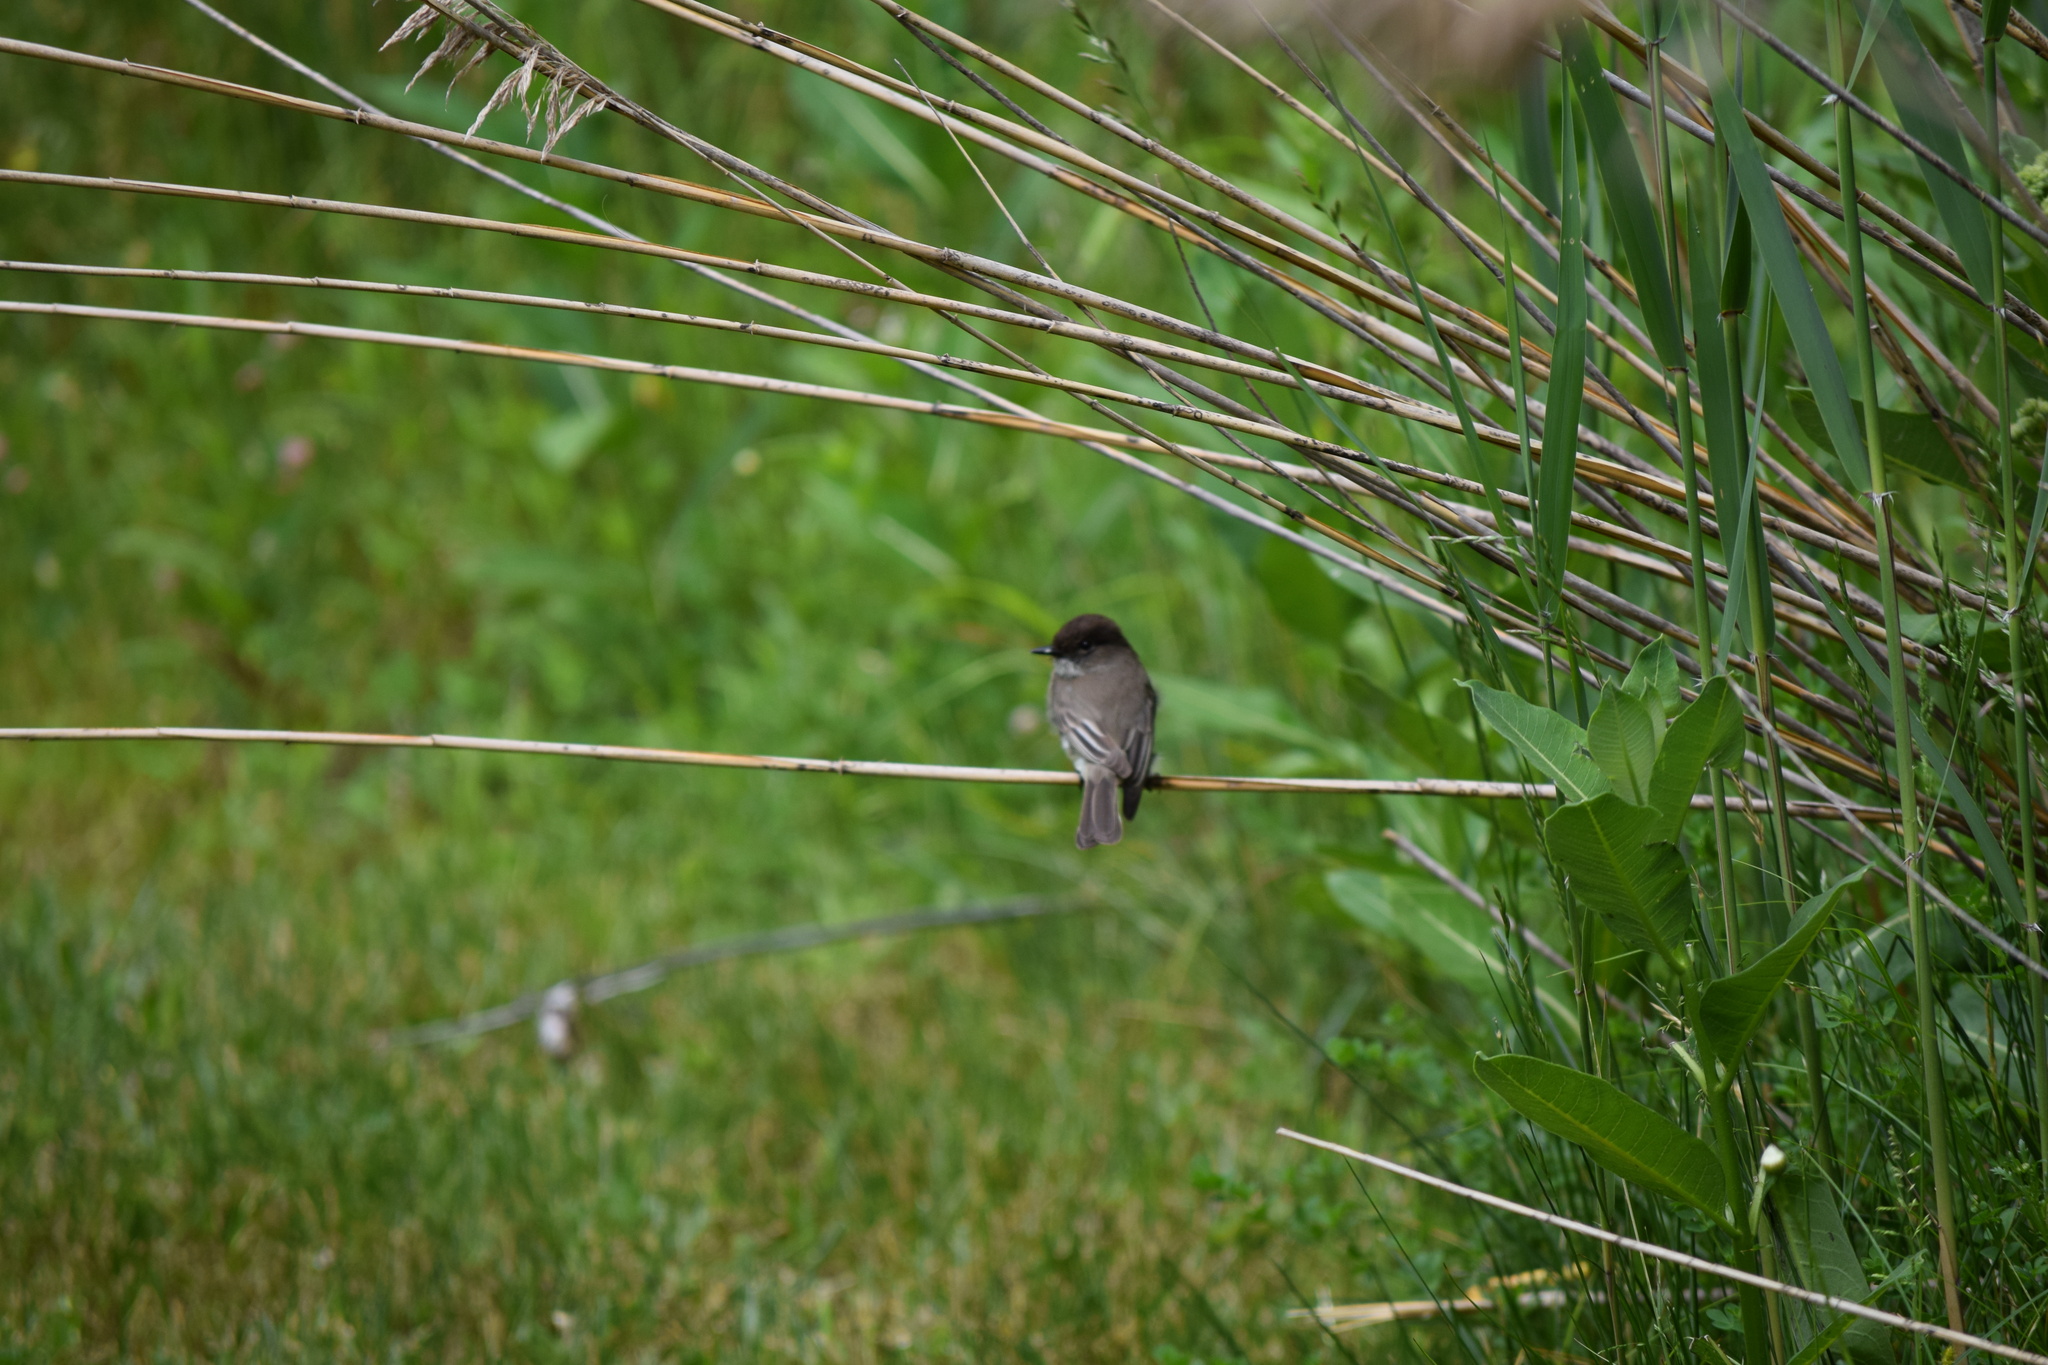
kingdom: Animalia
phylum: Chordata
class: Aves
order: Passeriformes
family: Tyrannidae
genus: Sayornis
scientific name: Sayornis phoebe
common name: Eastern phoebe
